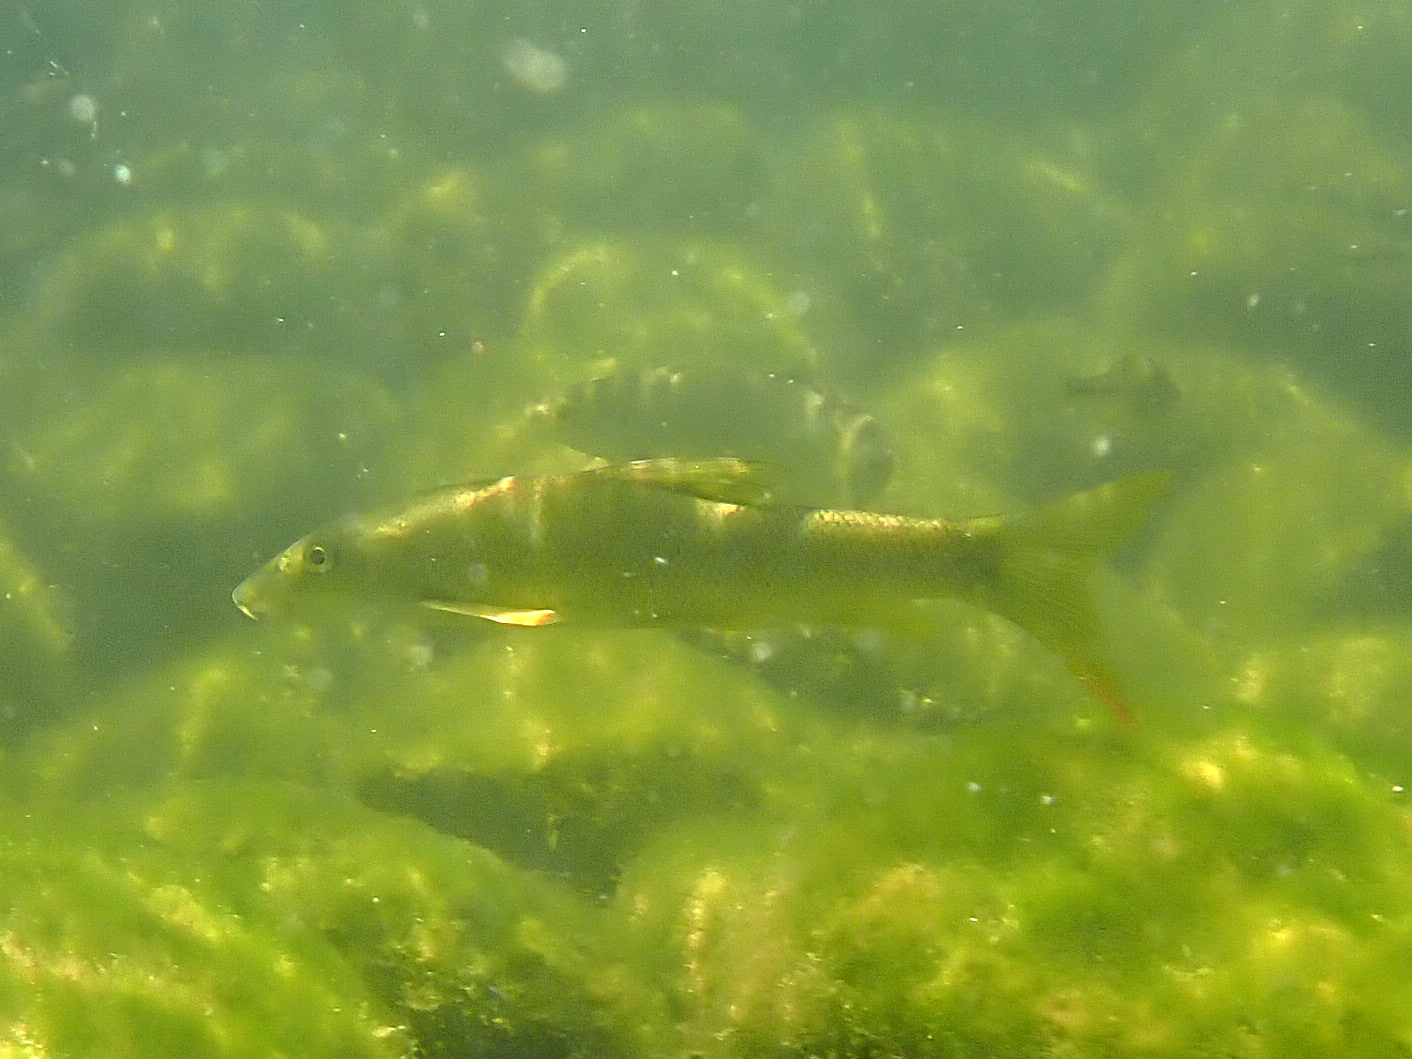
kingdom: Animalia
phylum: Chordata
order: Cypriniformes
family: Cyprinidae
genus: Barbus
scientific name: Barbus barbus
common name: Barbel
